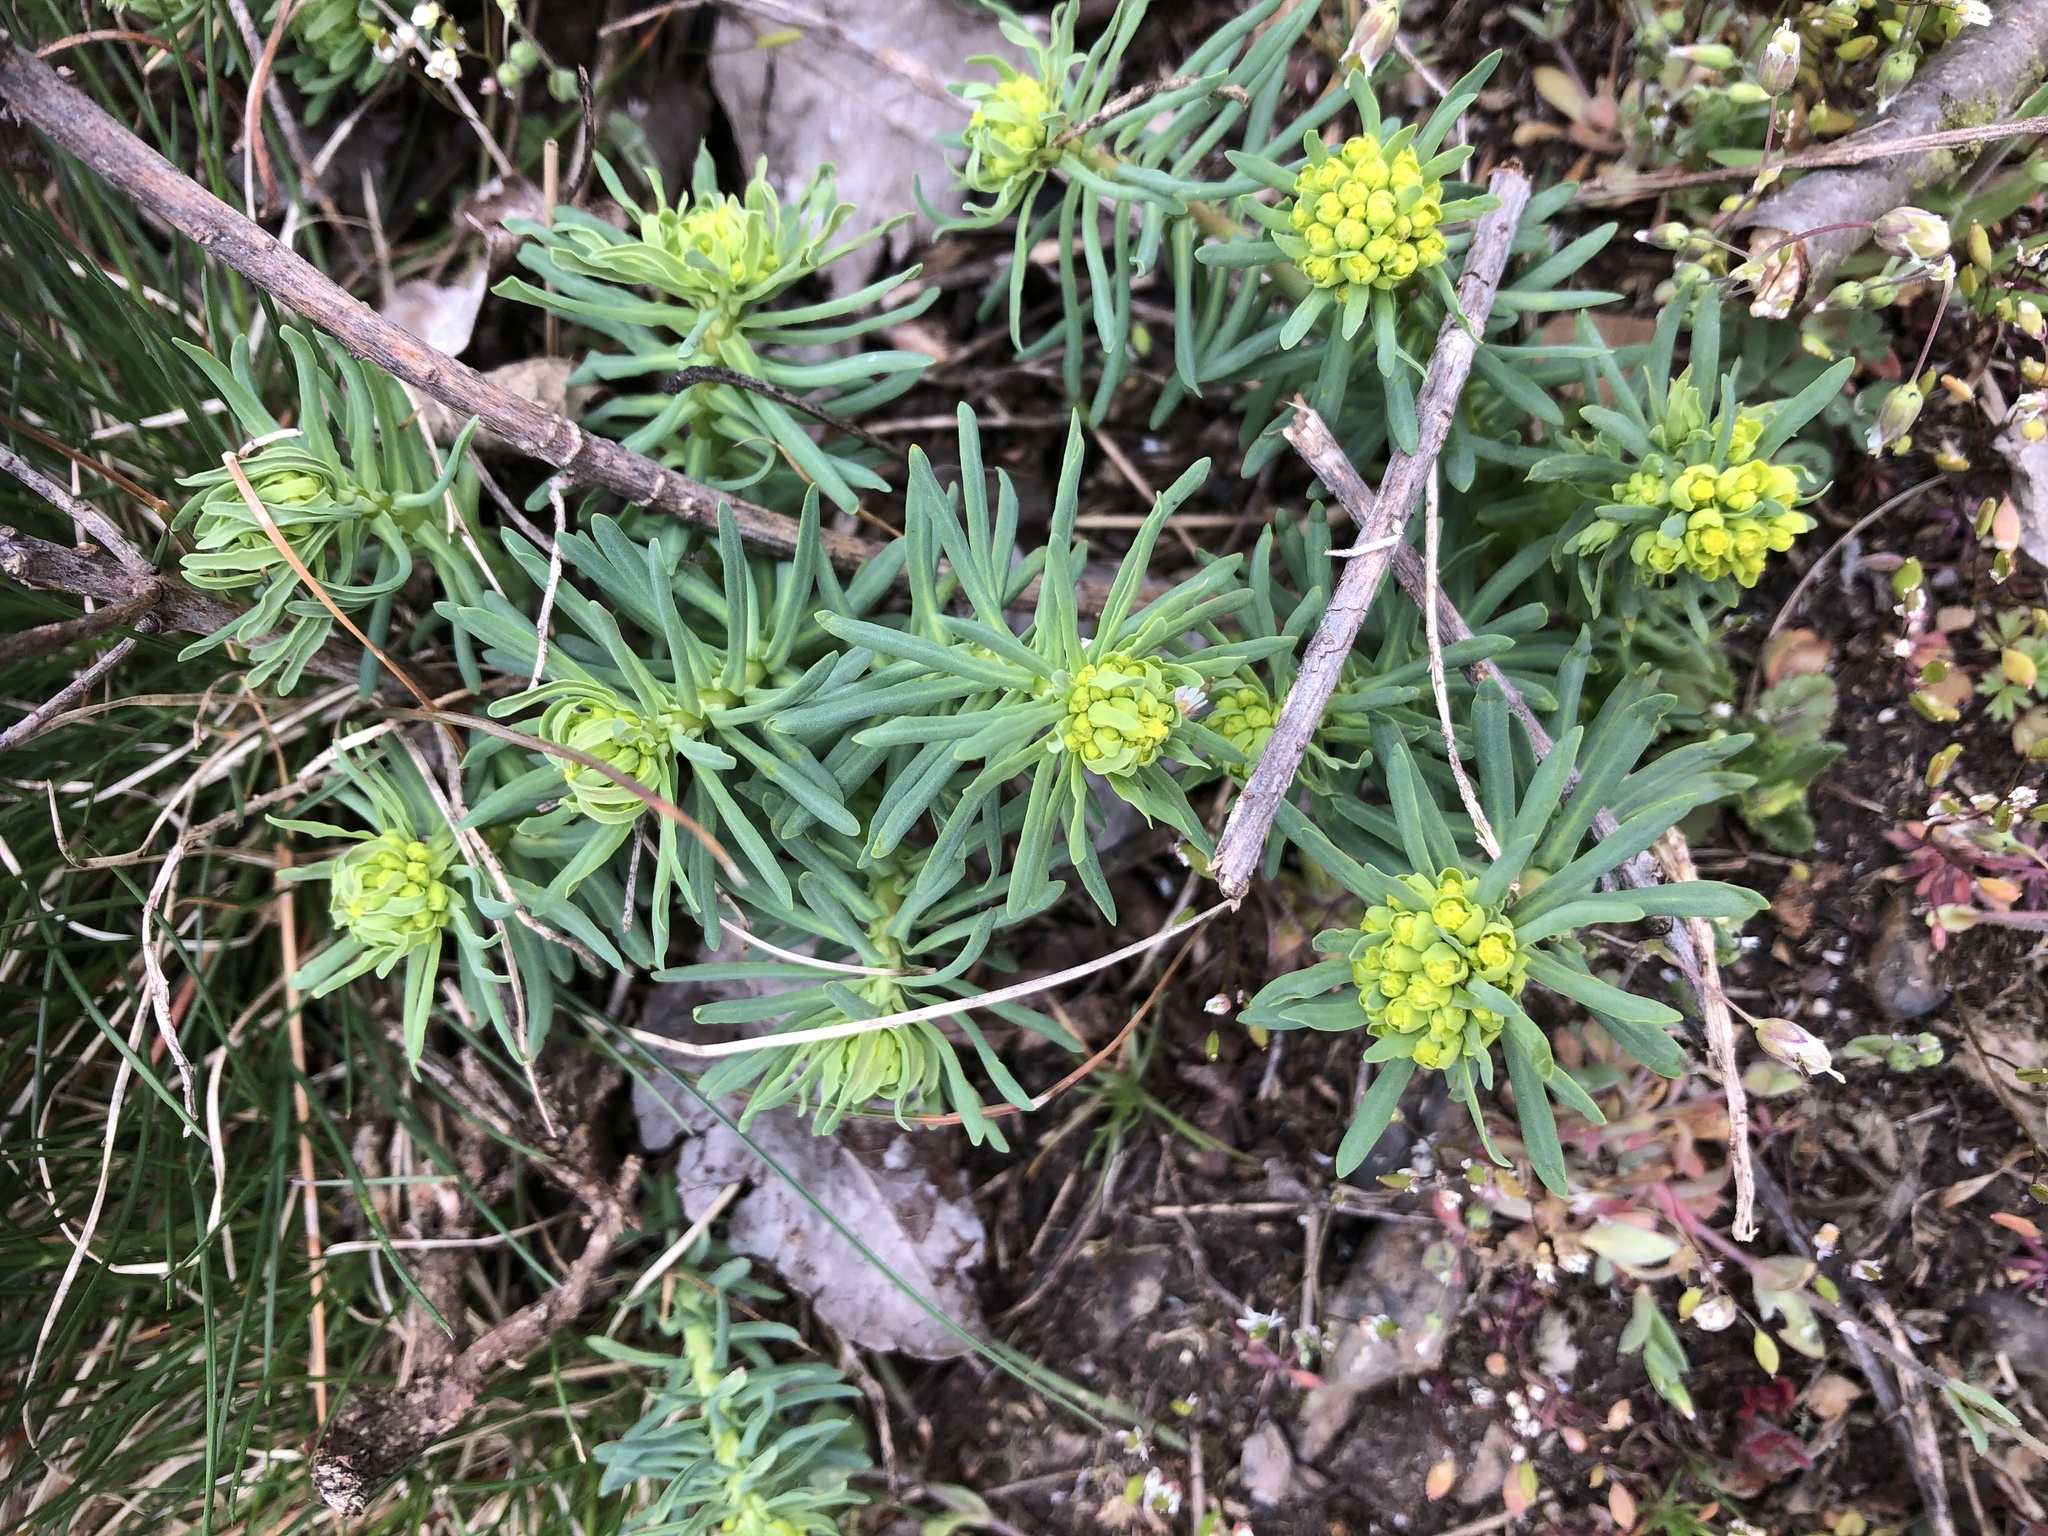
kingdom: Plantae
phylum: Tracheophyta
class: Magnoliopsida
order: Malpighiales
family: Euphorbiaceae
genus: Euphorbia
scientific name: Euphorbia cyparissias
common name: Cypress spurge
